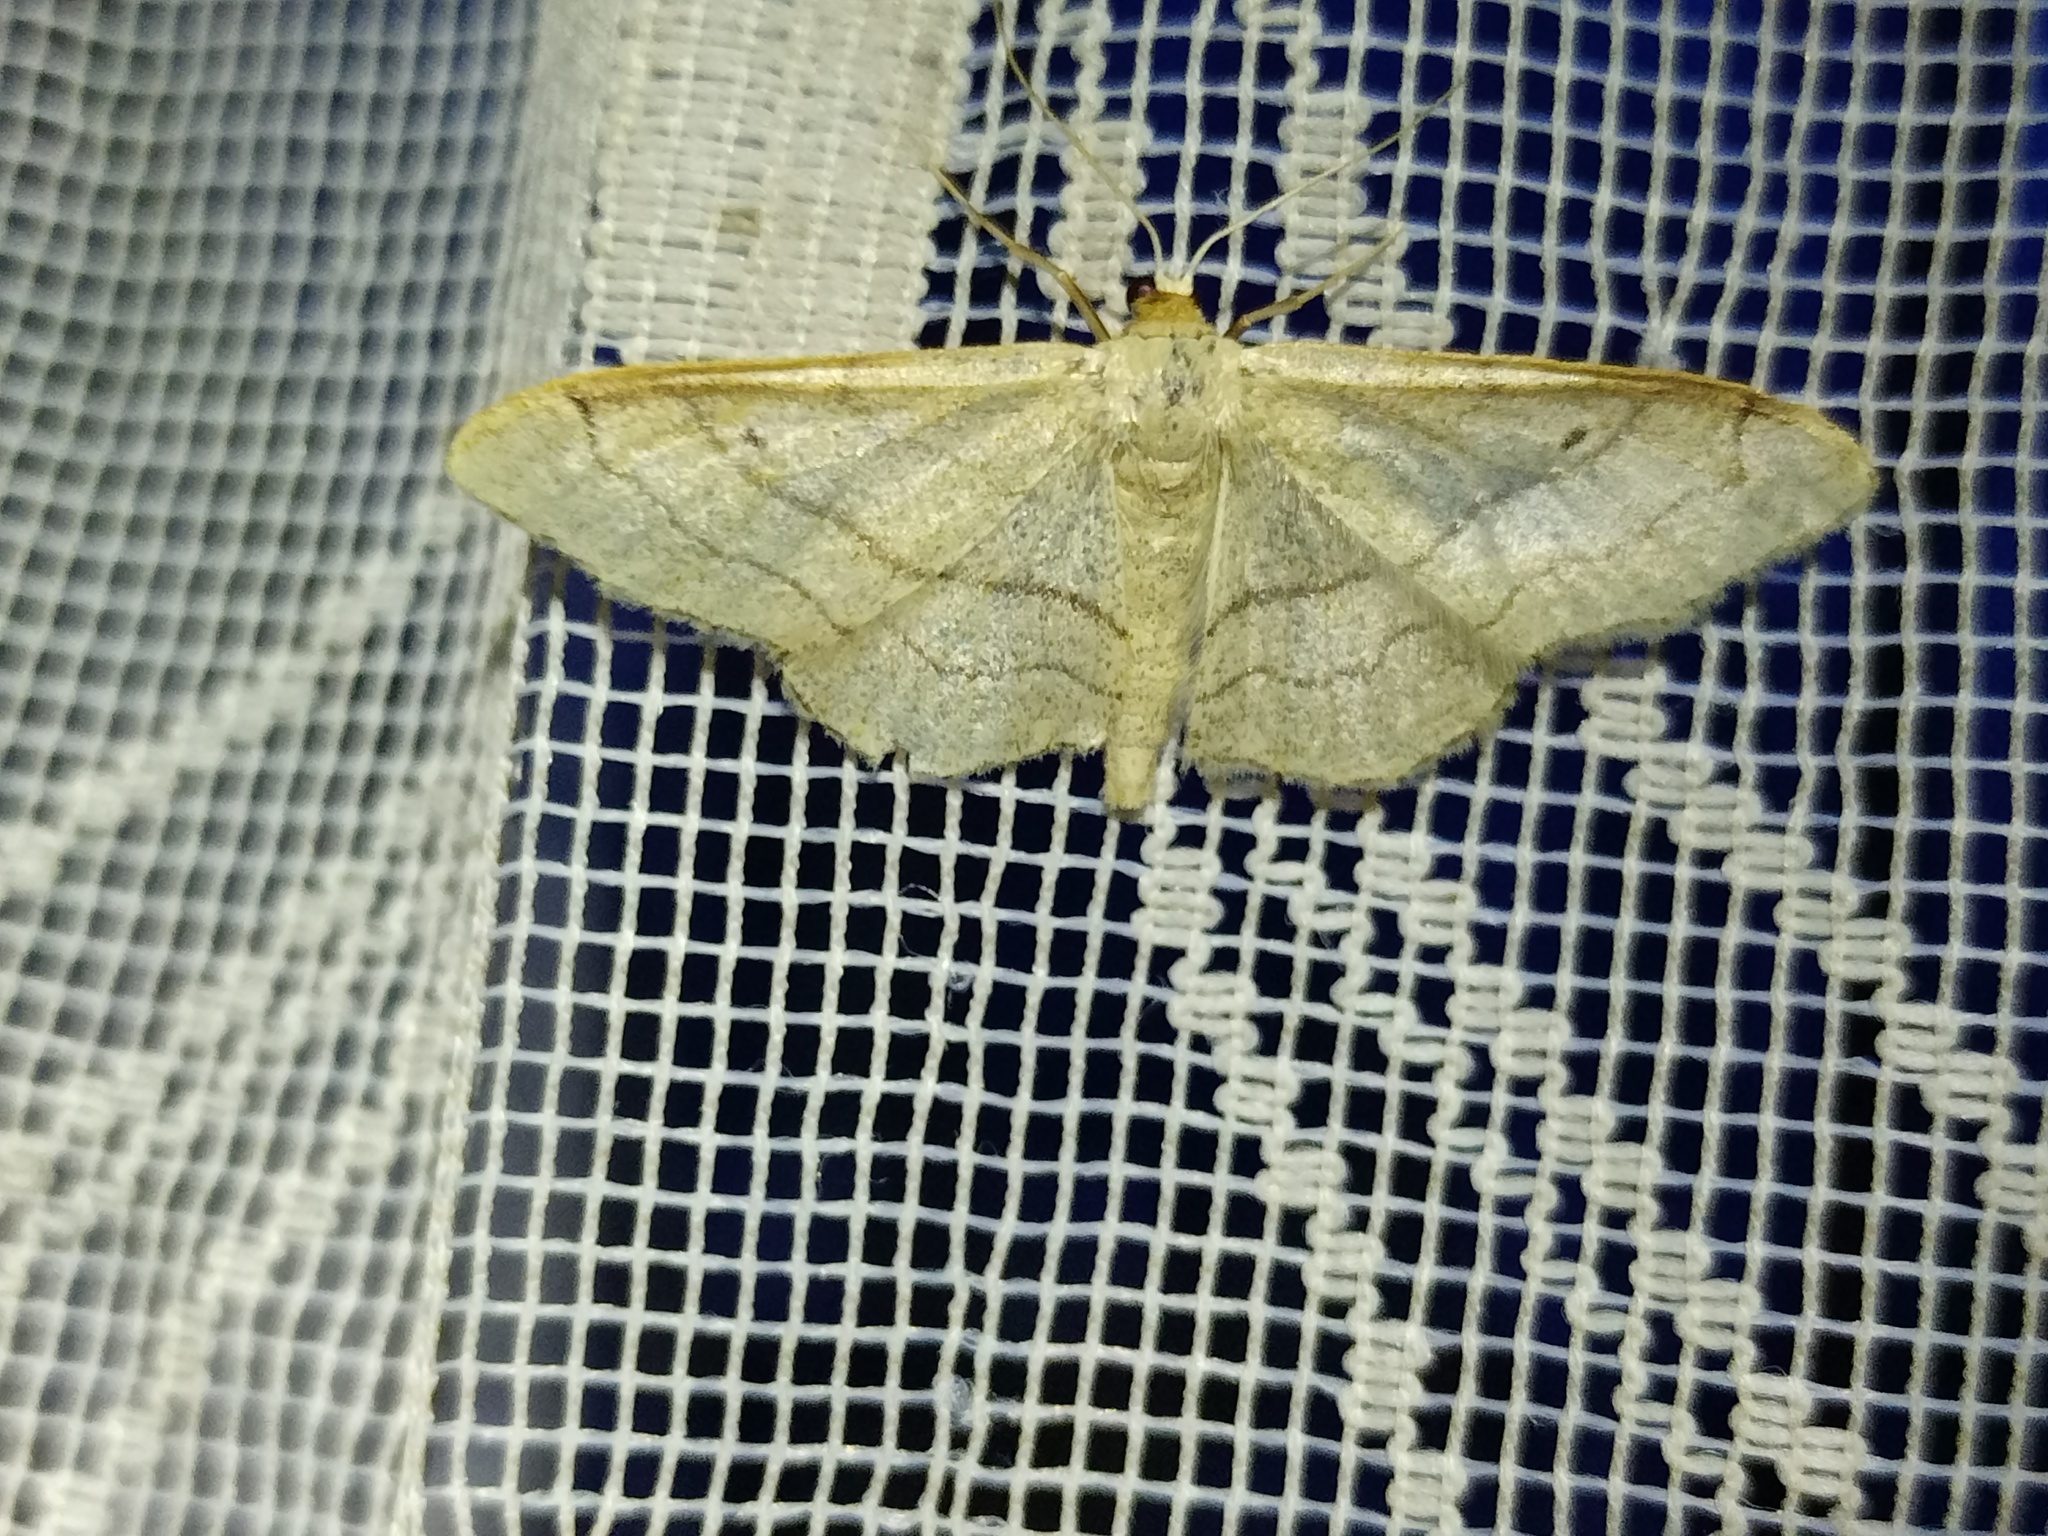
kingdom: Animalia
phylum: Arthropoda
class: Insecta
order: Lepidoptera
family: Geometridae
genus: Idaea
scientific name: Idaea aversata
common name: Riband wave
